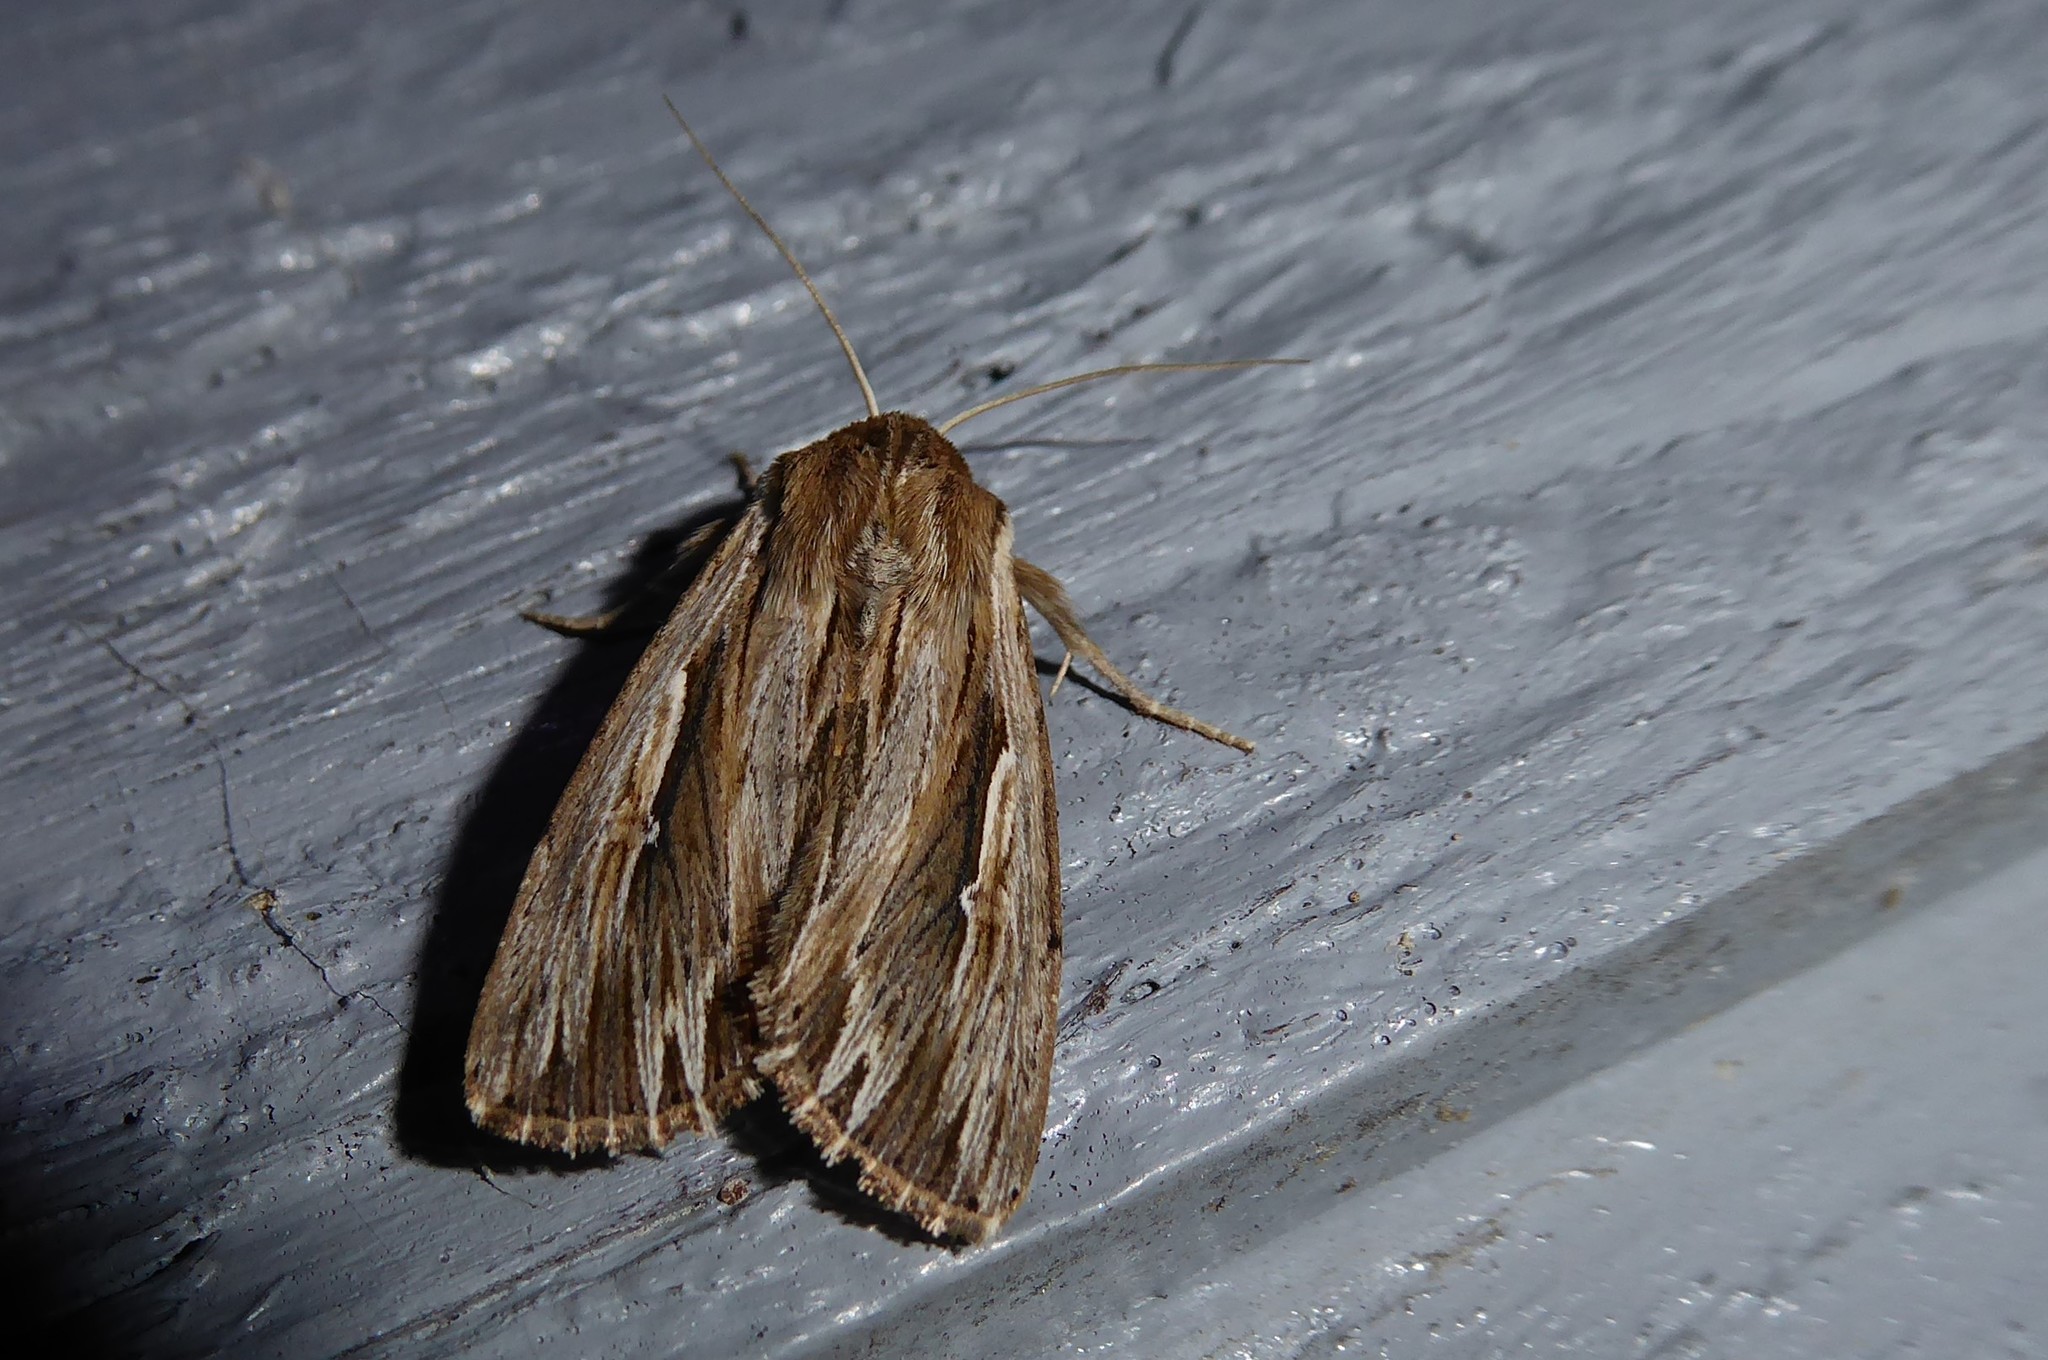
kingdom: Animalia
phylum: Arthropoda
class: Insecta
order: Lepidoptera
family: Noctuidae
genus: Persectania
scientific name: Persectania aversa
